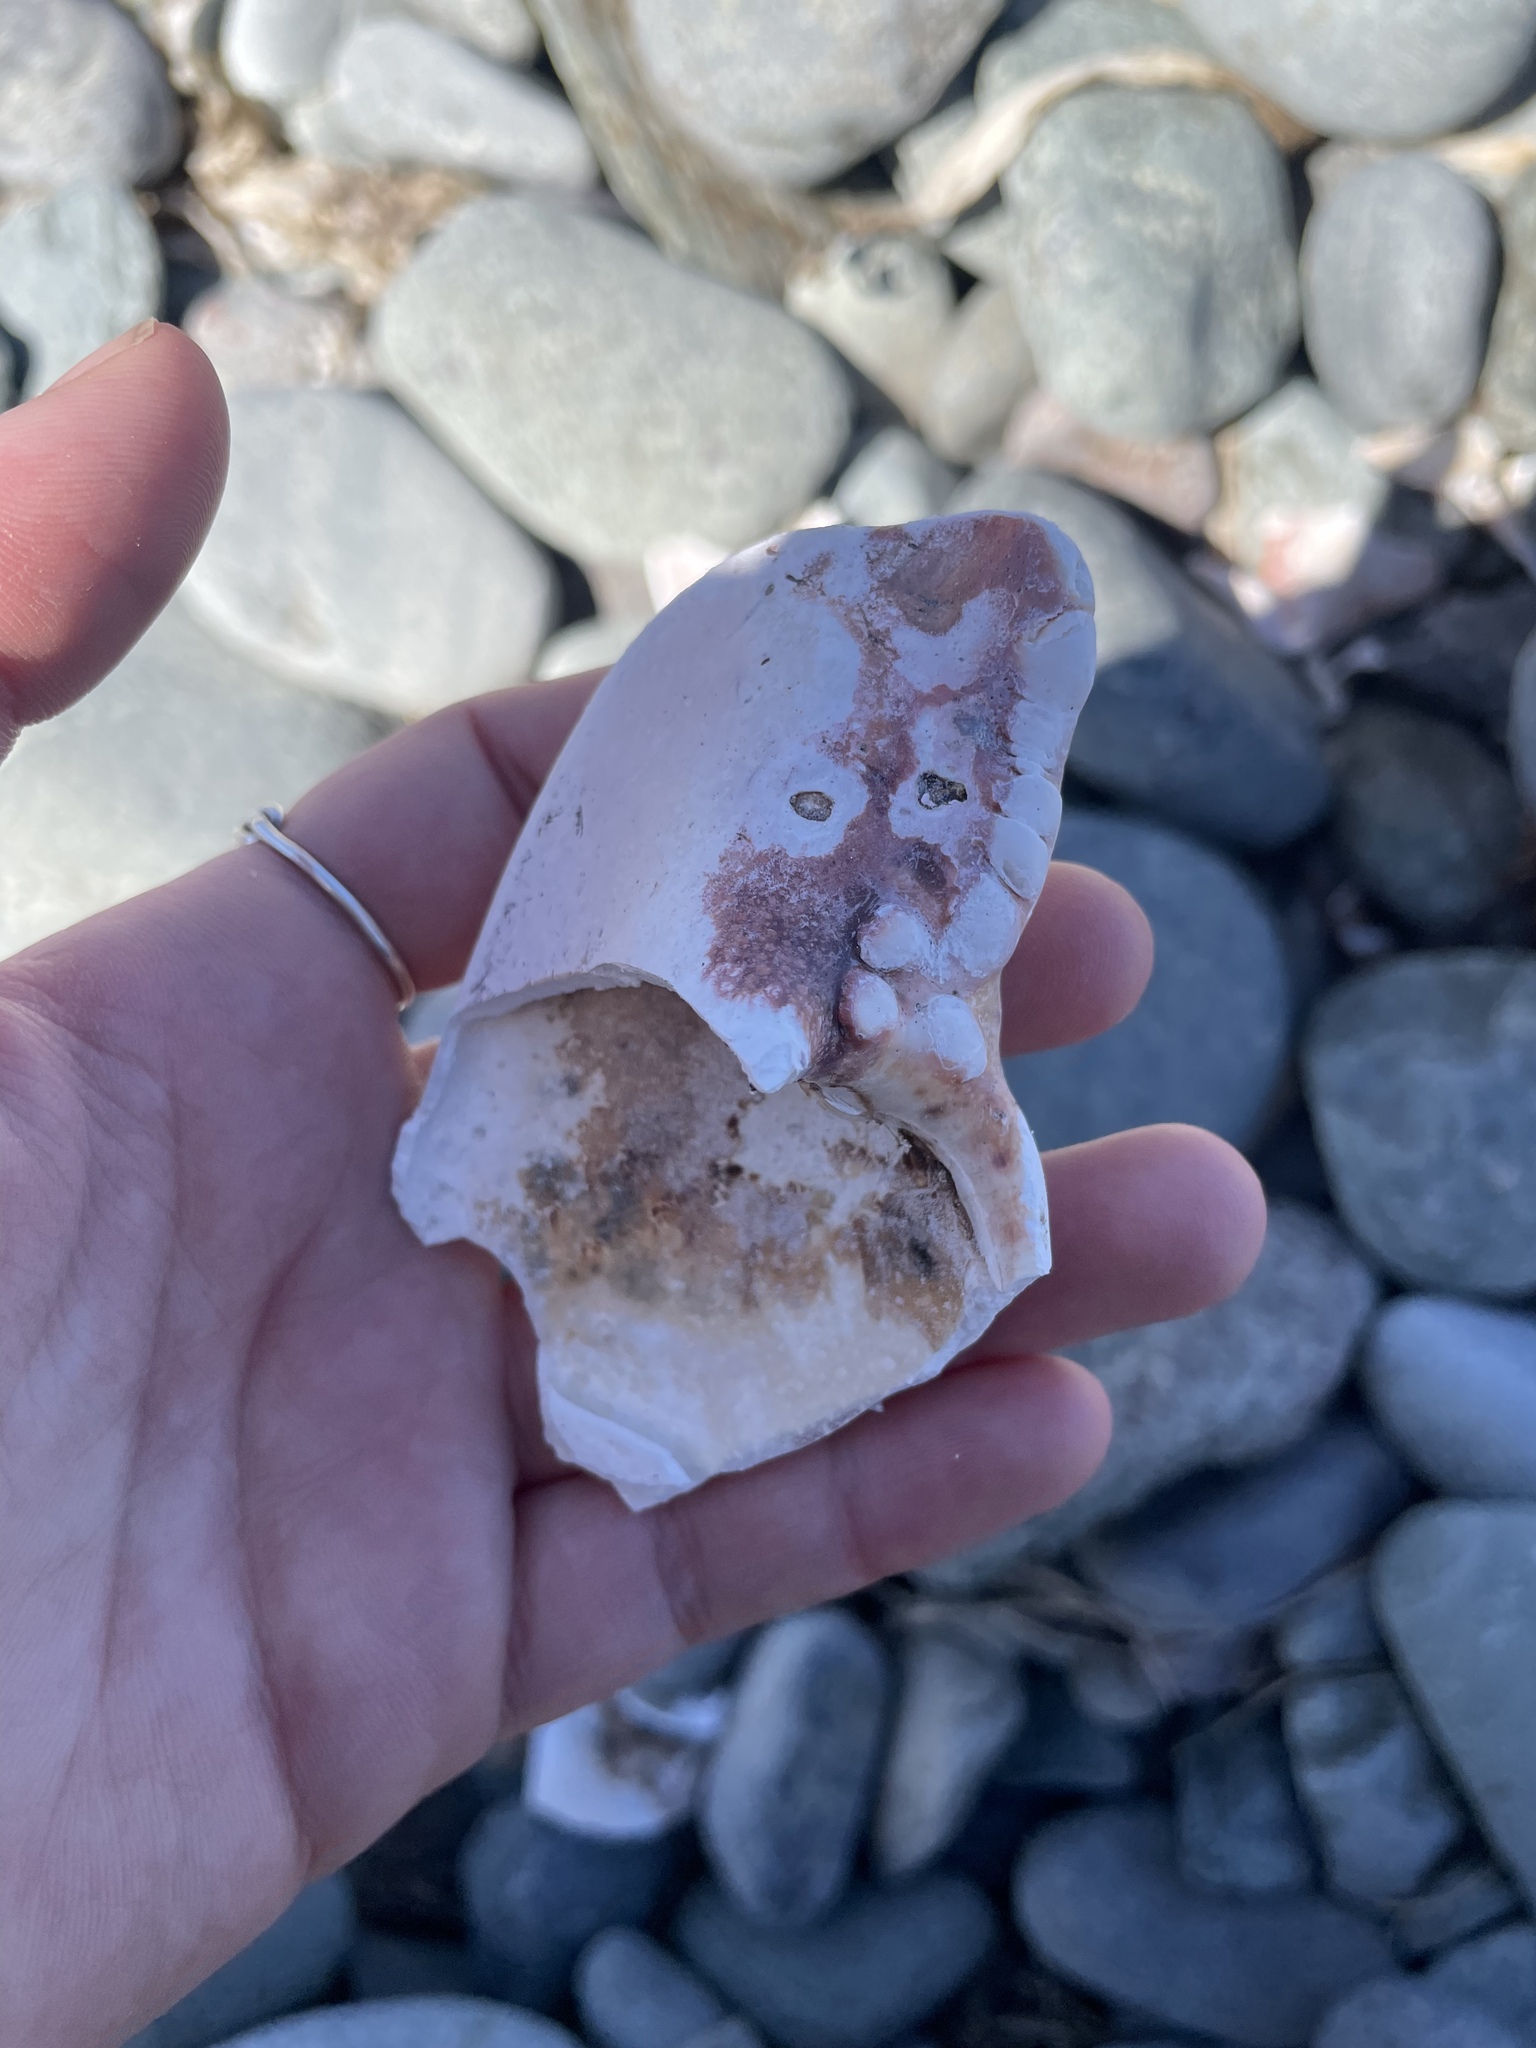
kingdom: Animalia
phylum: Arthropoda
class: Malacostraca
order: Decapoda
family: Nephropidae
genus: Homarus
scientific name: Homarus americanus
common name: American lobster
